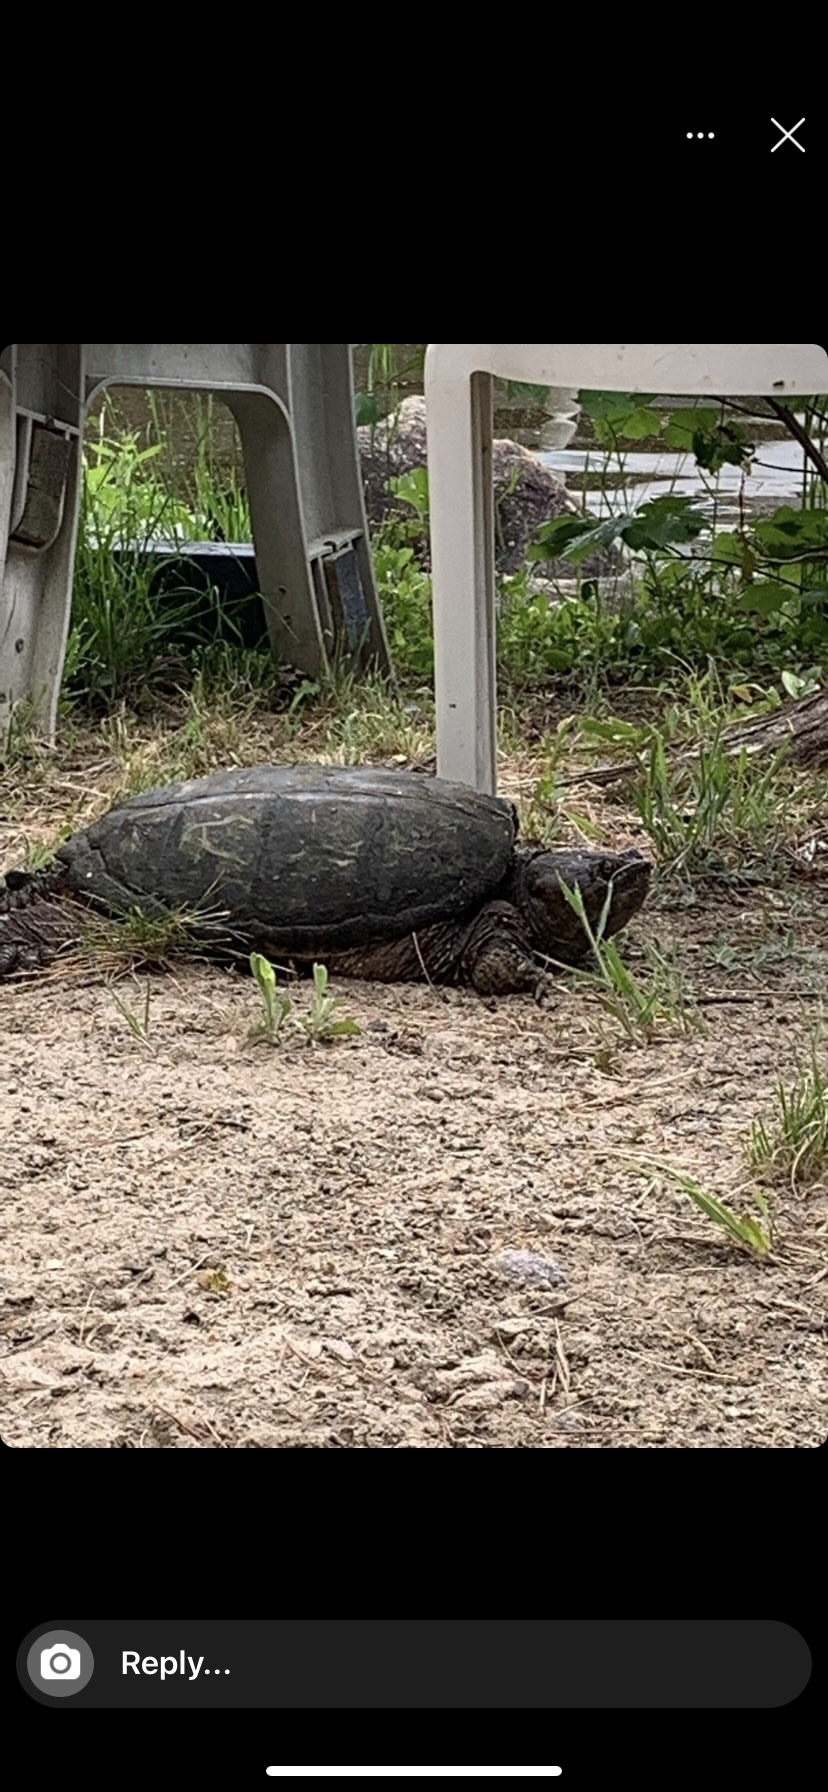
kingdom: Animalia
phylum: Chordata
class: Testudines
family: Chelydridae
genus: Chelydra
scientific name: Chelydra serpentina
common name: Common snapping turtle
